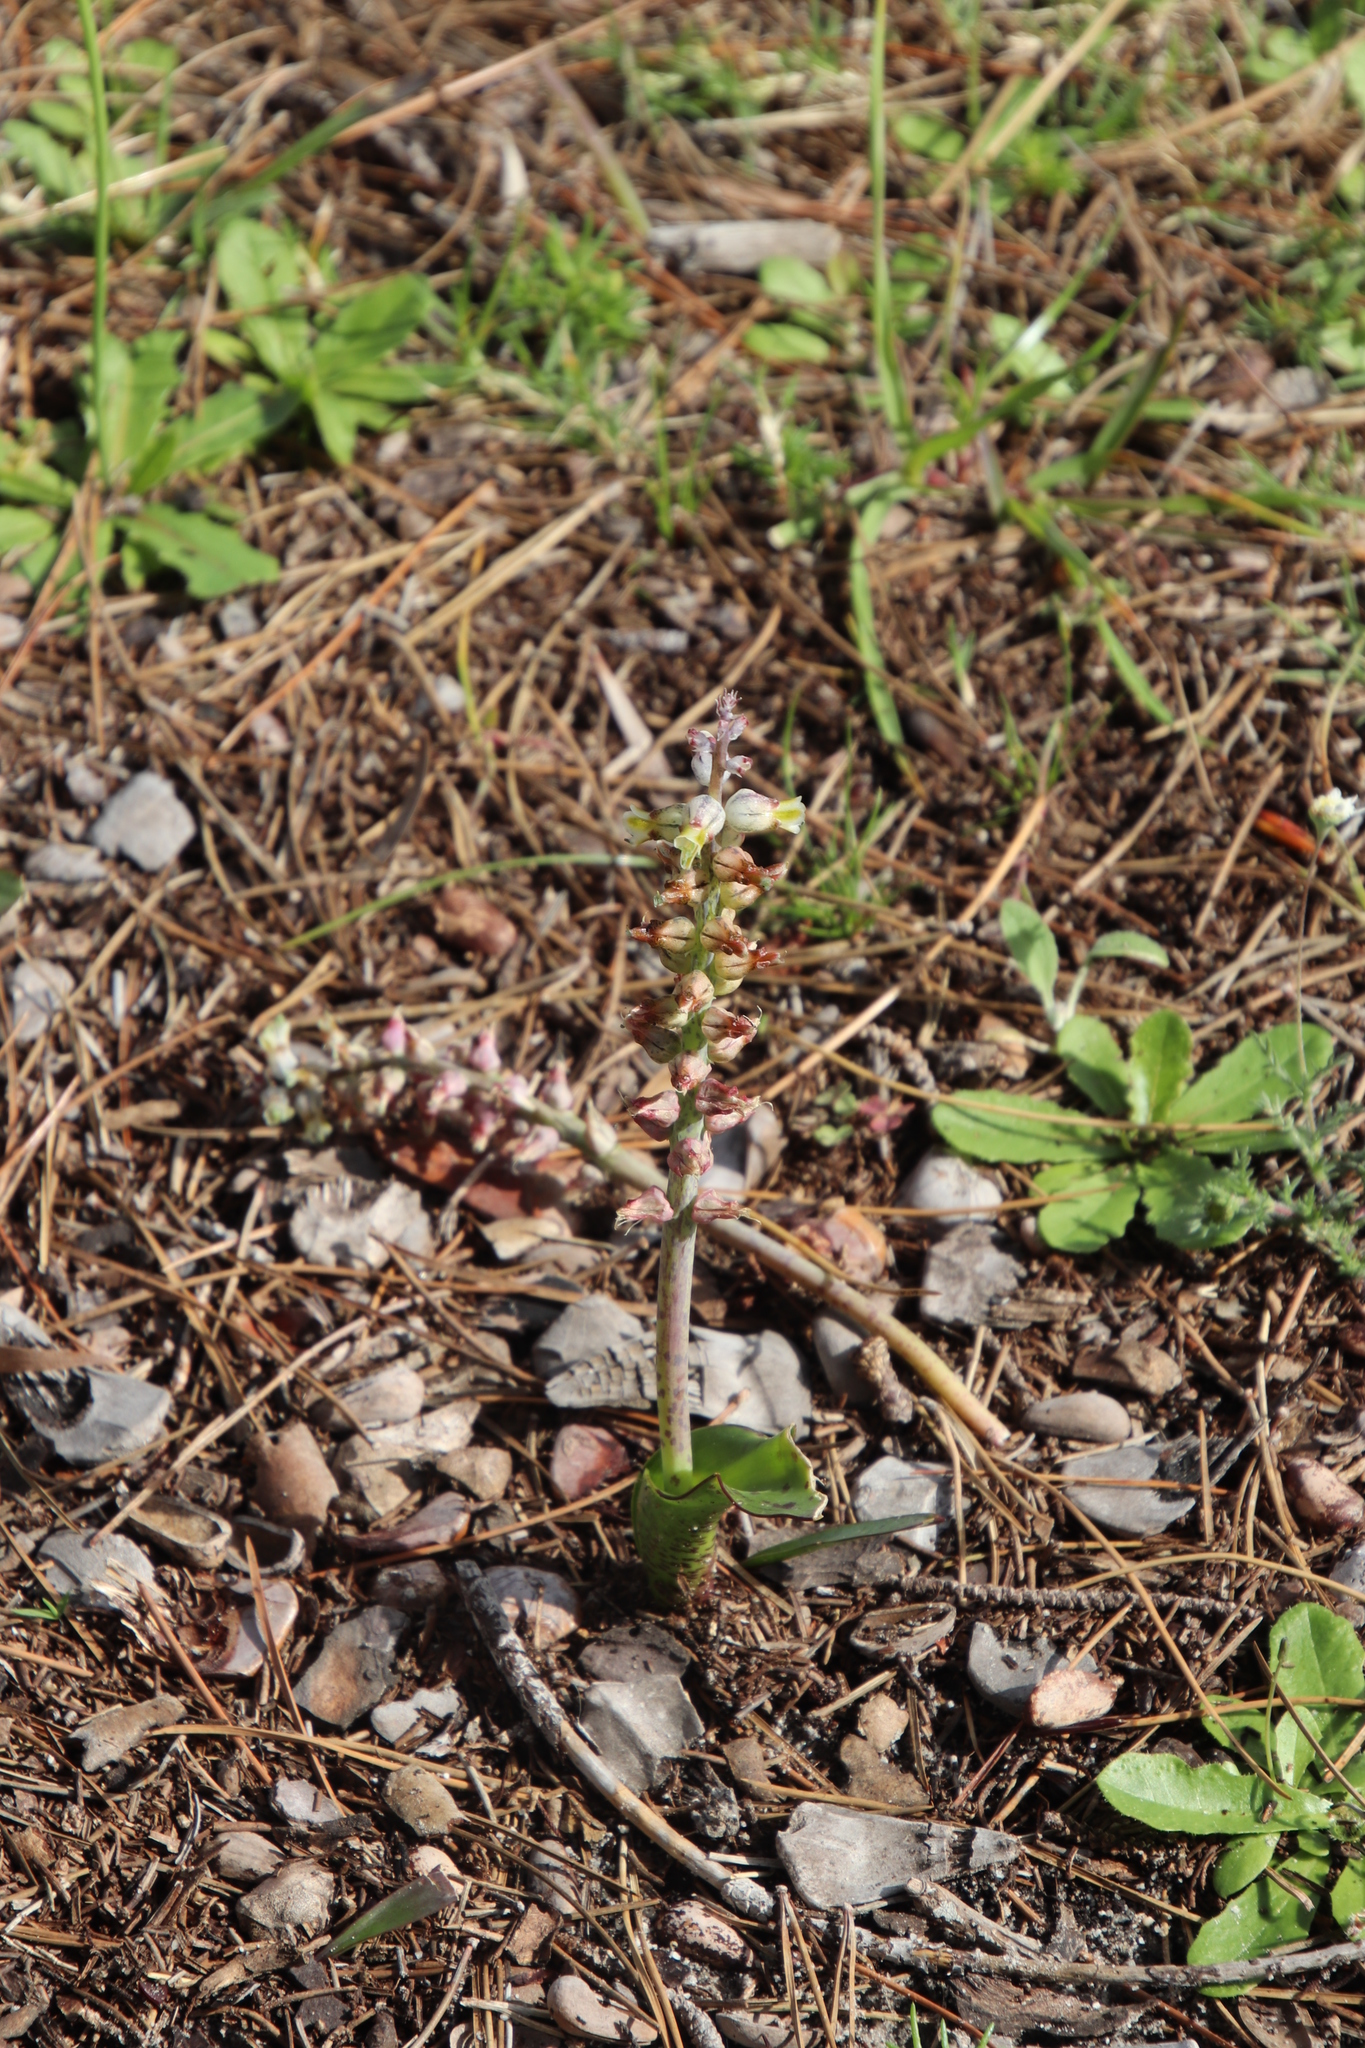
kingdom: Plantae
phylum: Tracheophyta
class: Liliopsida
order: Asparagales
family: Asparagaceae
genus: Lachenalia
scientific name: Lachenalia variegata
